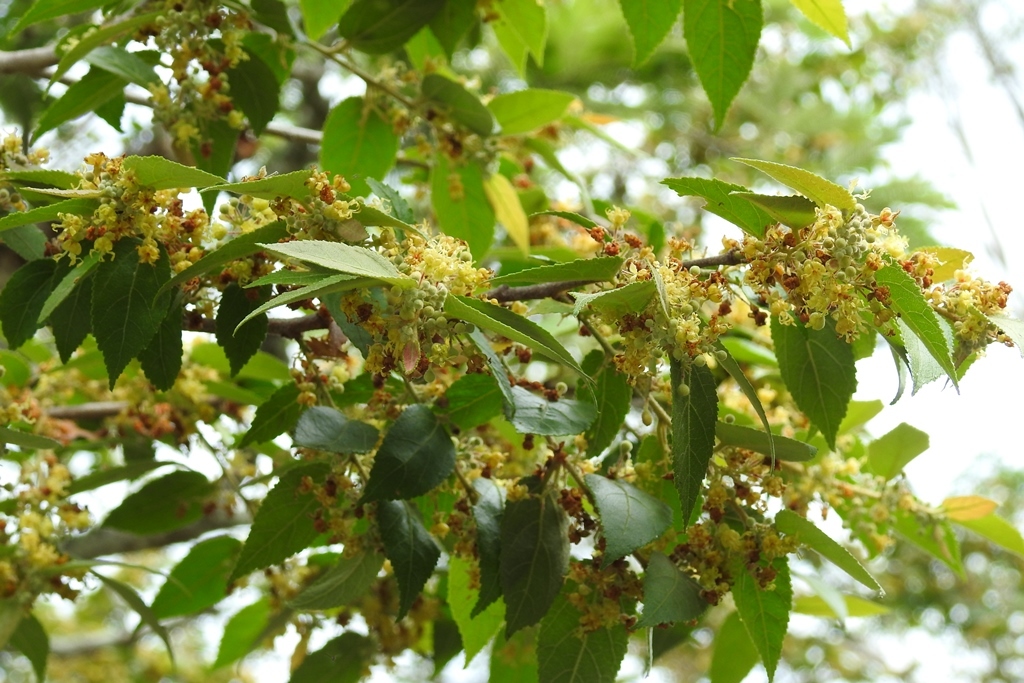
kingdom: Plantae
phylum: Tracheophyta
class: Magnoliopsida
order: Malvales
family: Malvaceae
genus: Guazuma
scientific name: Guazuma ulmifolia
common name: Bastard-cedar
